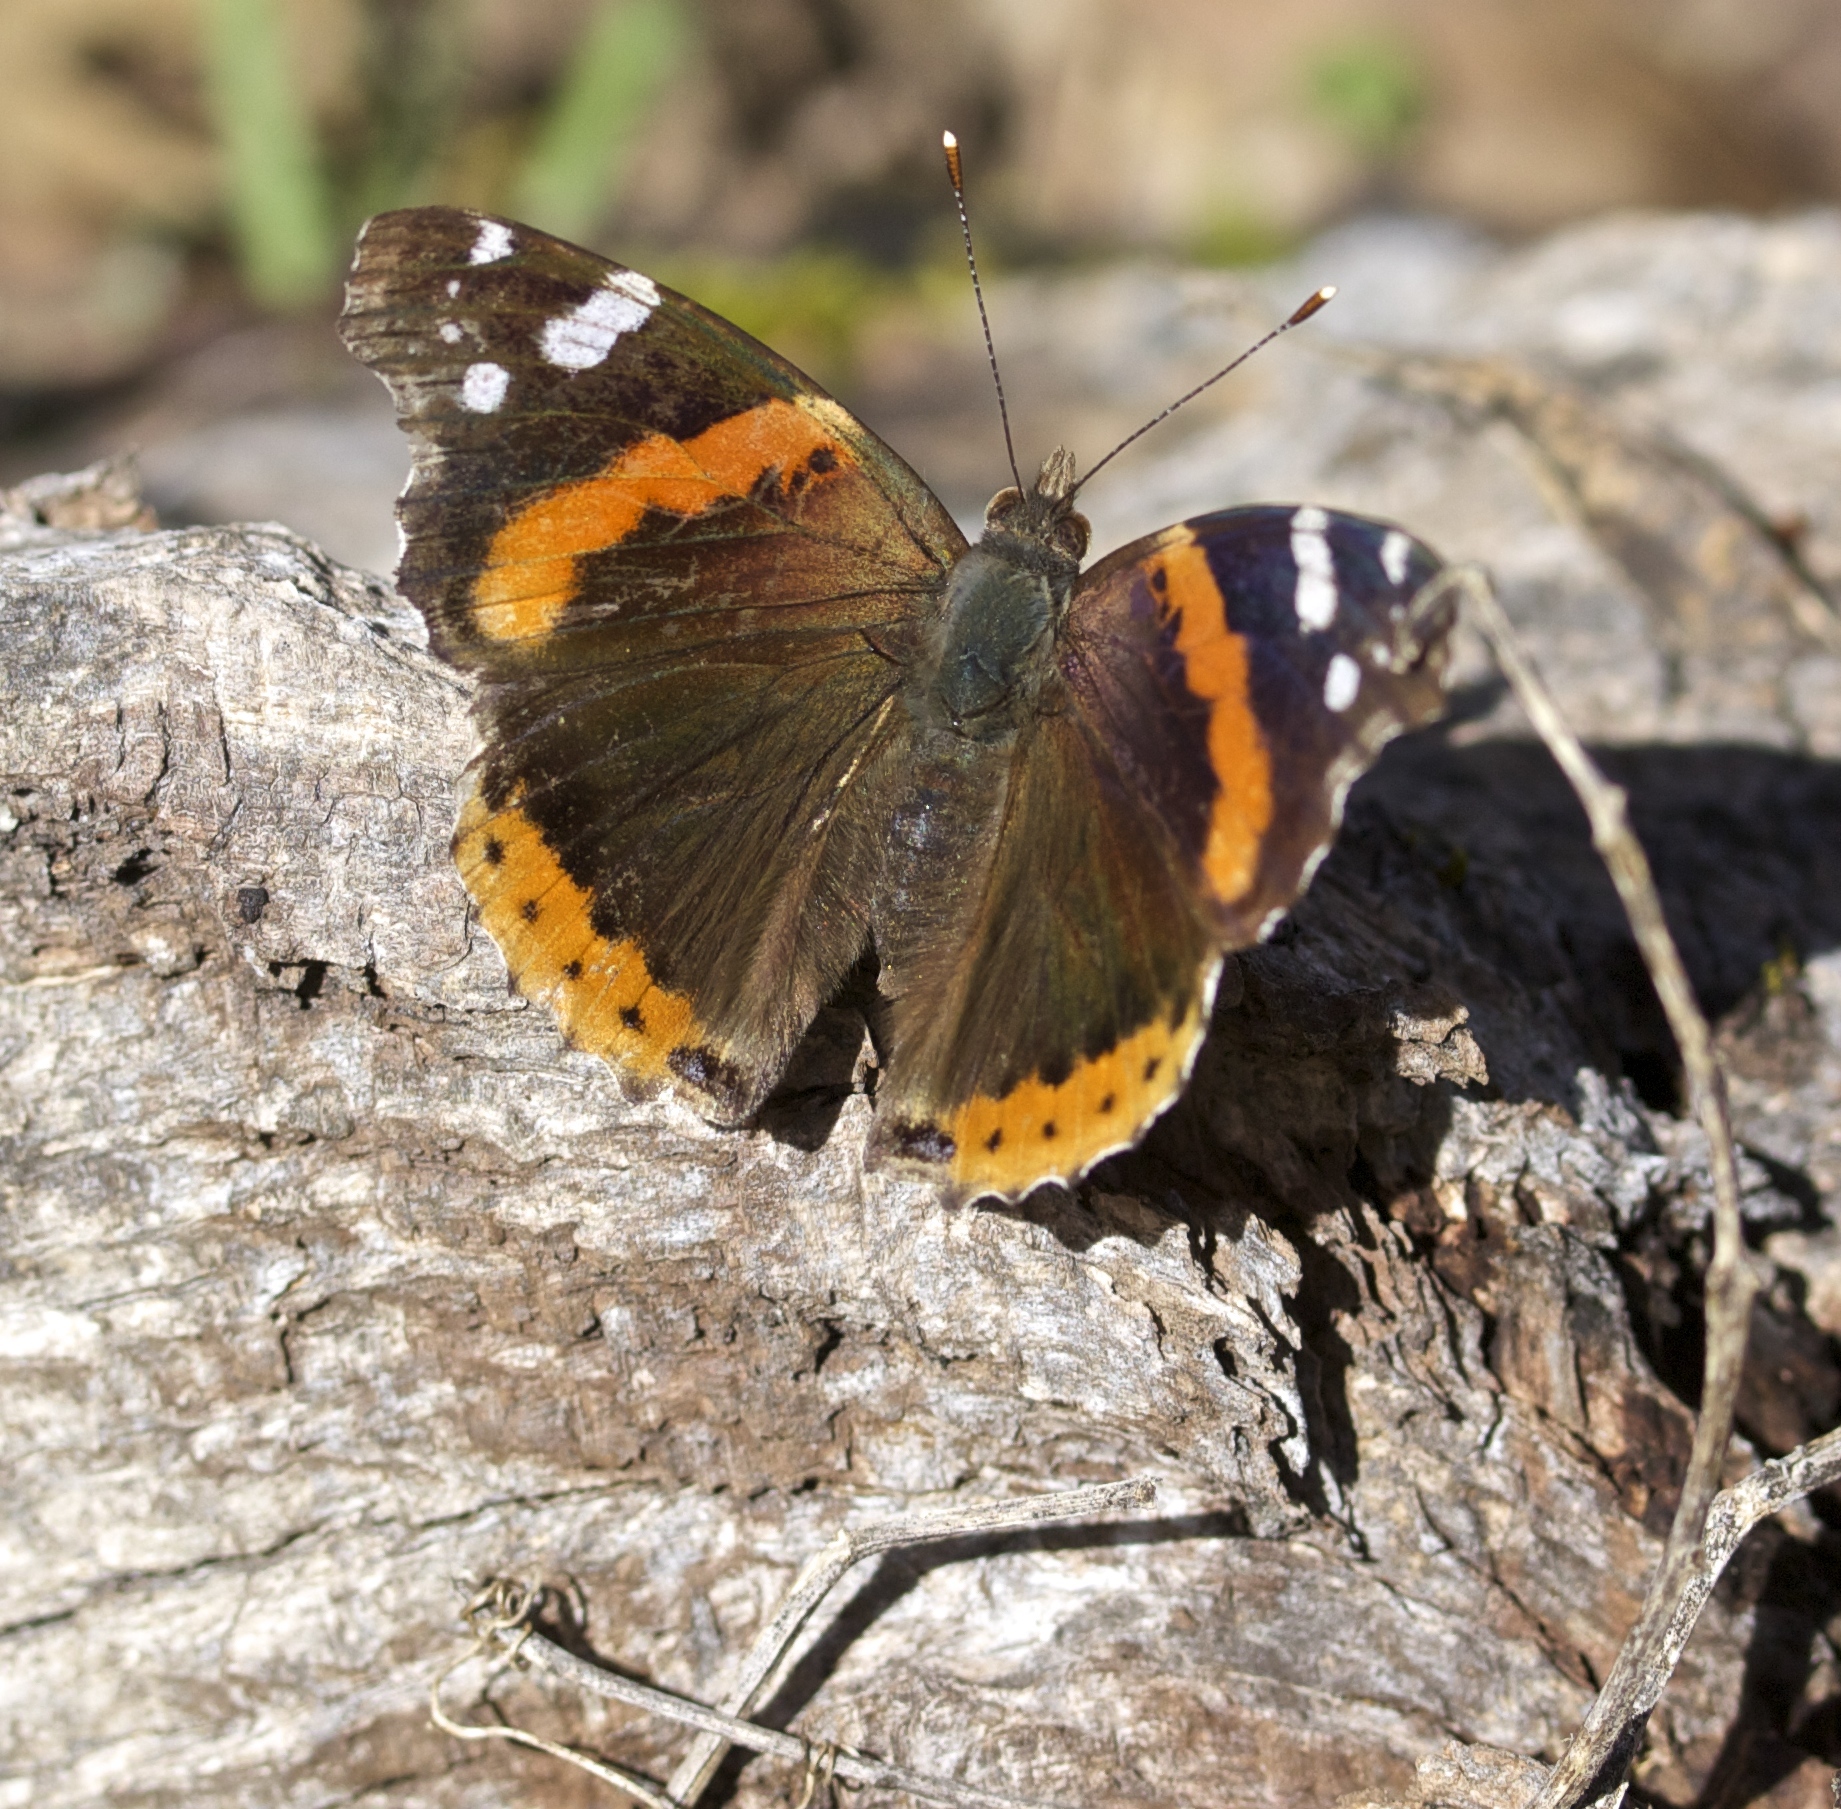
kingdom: Animalia
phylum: Arthropoda
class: Insecta
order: Lepidoptera
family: Nymphalidae
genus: Vanessa
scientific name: Vanessa atalanta
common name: Red admiral
